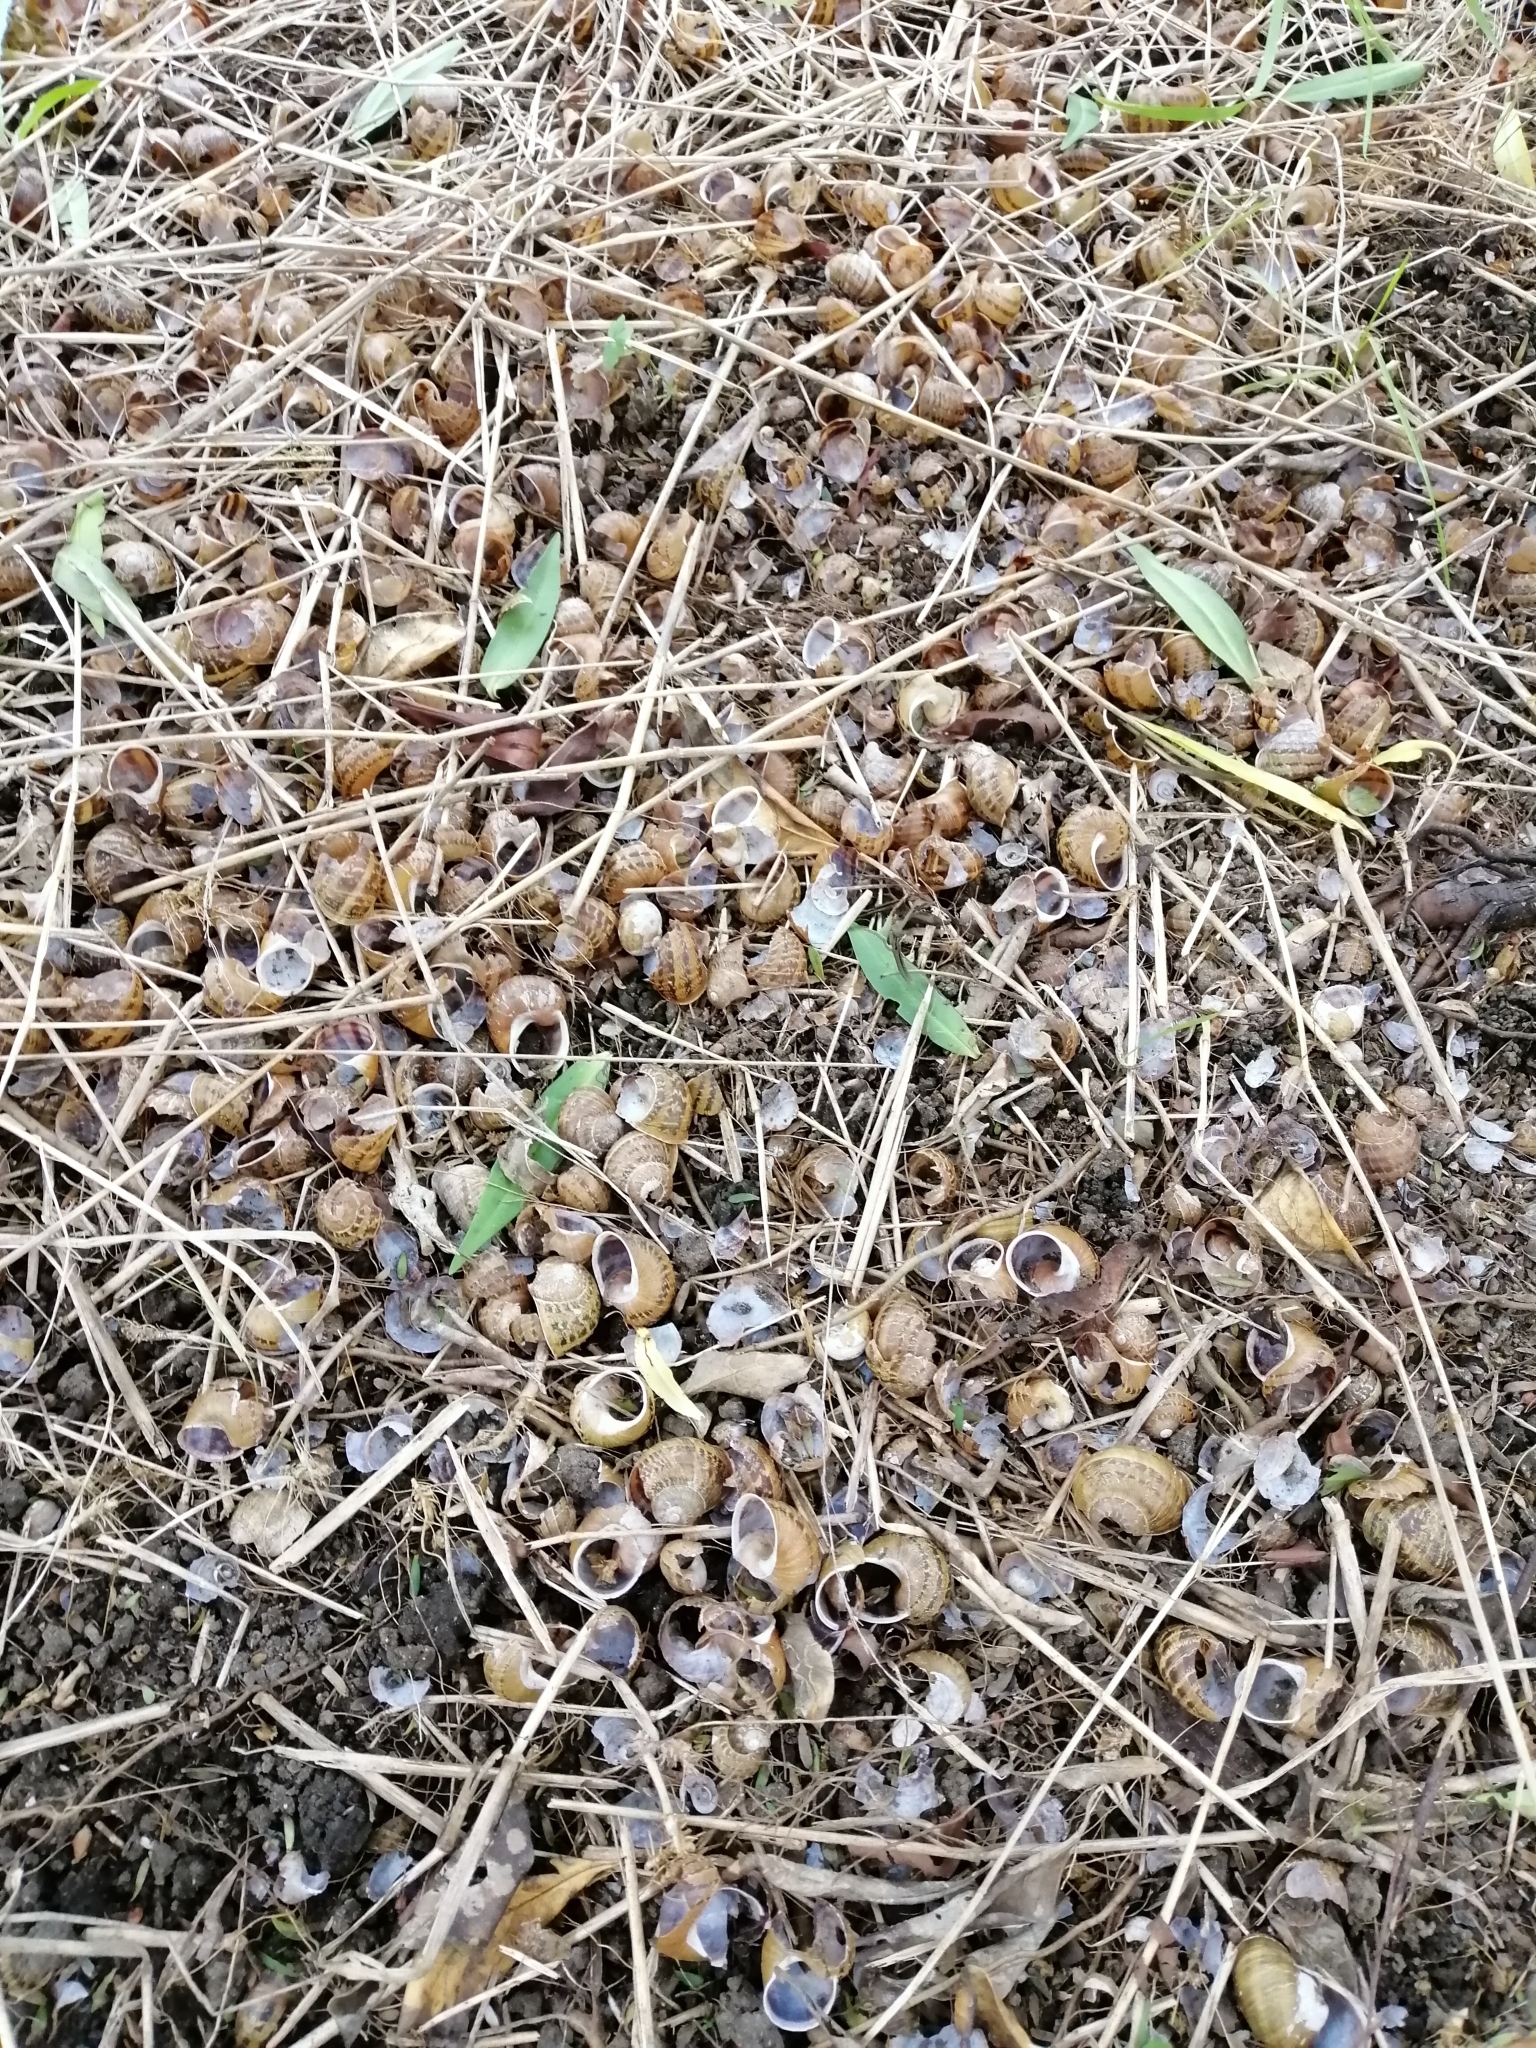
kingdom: Animalia
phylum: Mollusca
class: Gastropoda
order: Stylommatophora
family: Helicidae
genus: Cornu
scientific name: Cornu aspersum
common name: Brown garden snail
